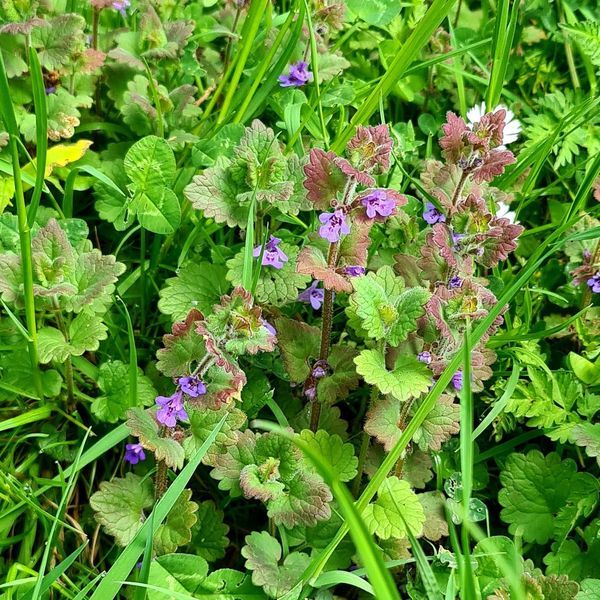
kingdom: Plantae
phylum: Tracheophyta
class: Magnoliopsida
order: Lamiales
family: Lamiaceae
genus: Glechoma
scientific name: Glechoma hederacea
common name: Ground ivy
